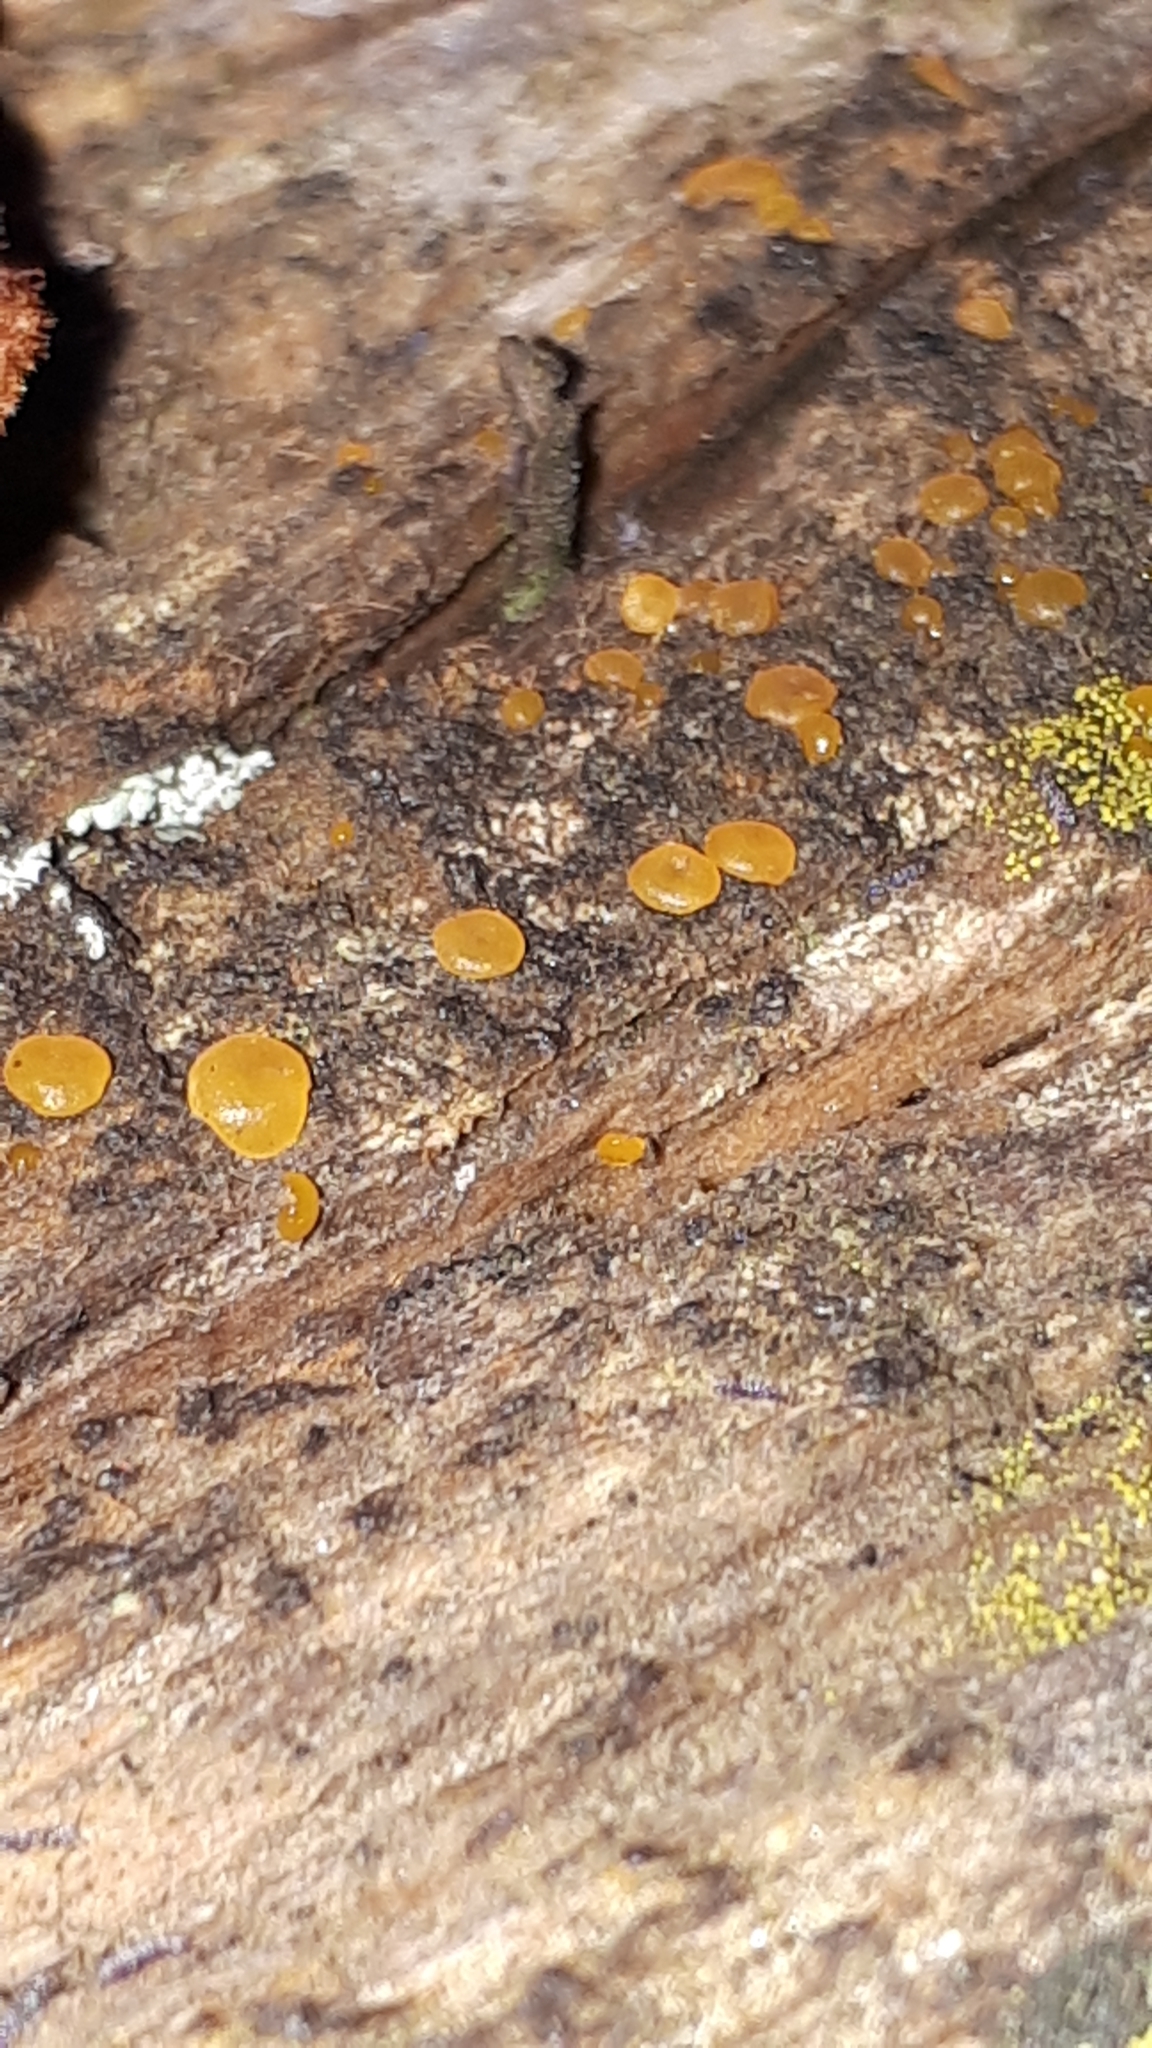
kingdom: Fungi
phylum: Basidiomycota
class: Dacrymycetes
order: Dacrymycetales
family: Dacrymycetaceae
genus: Dacrymyces
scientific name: Dacrymyces stillatus
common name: Common jelly spot
